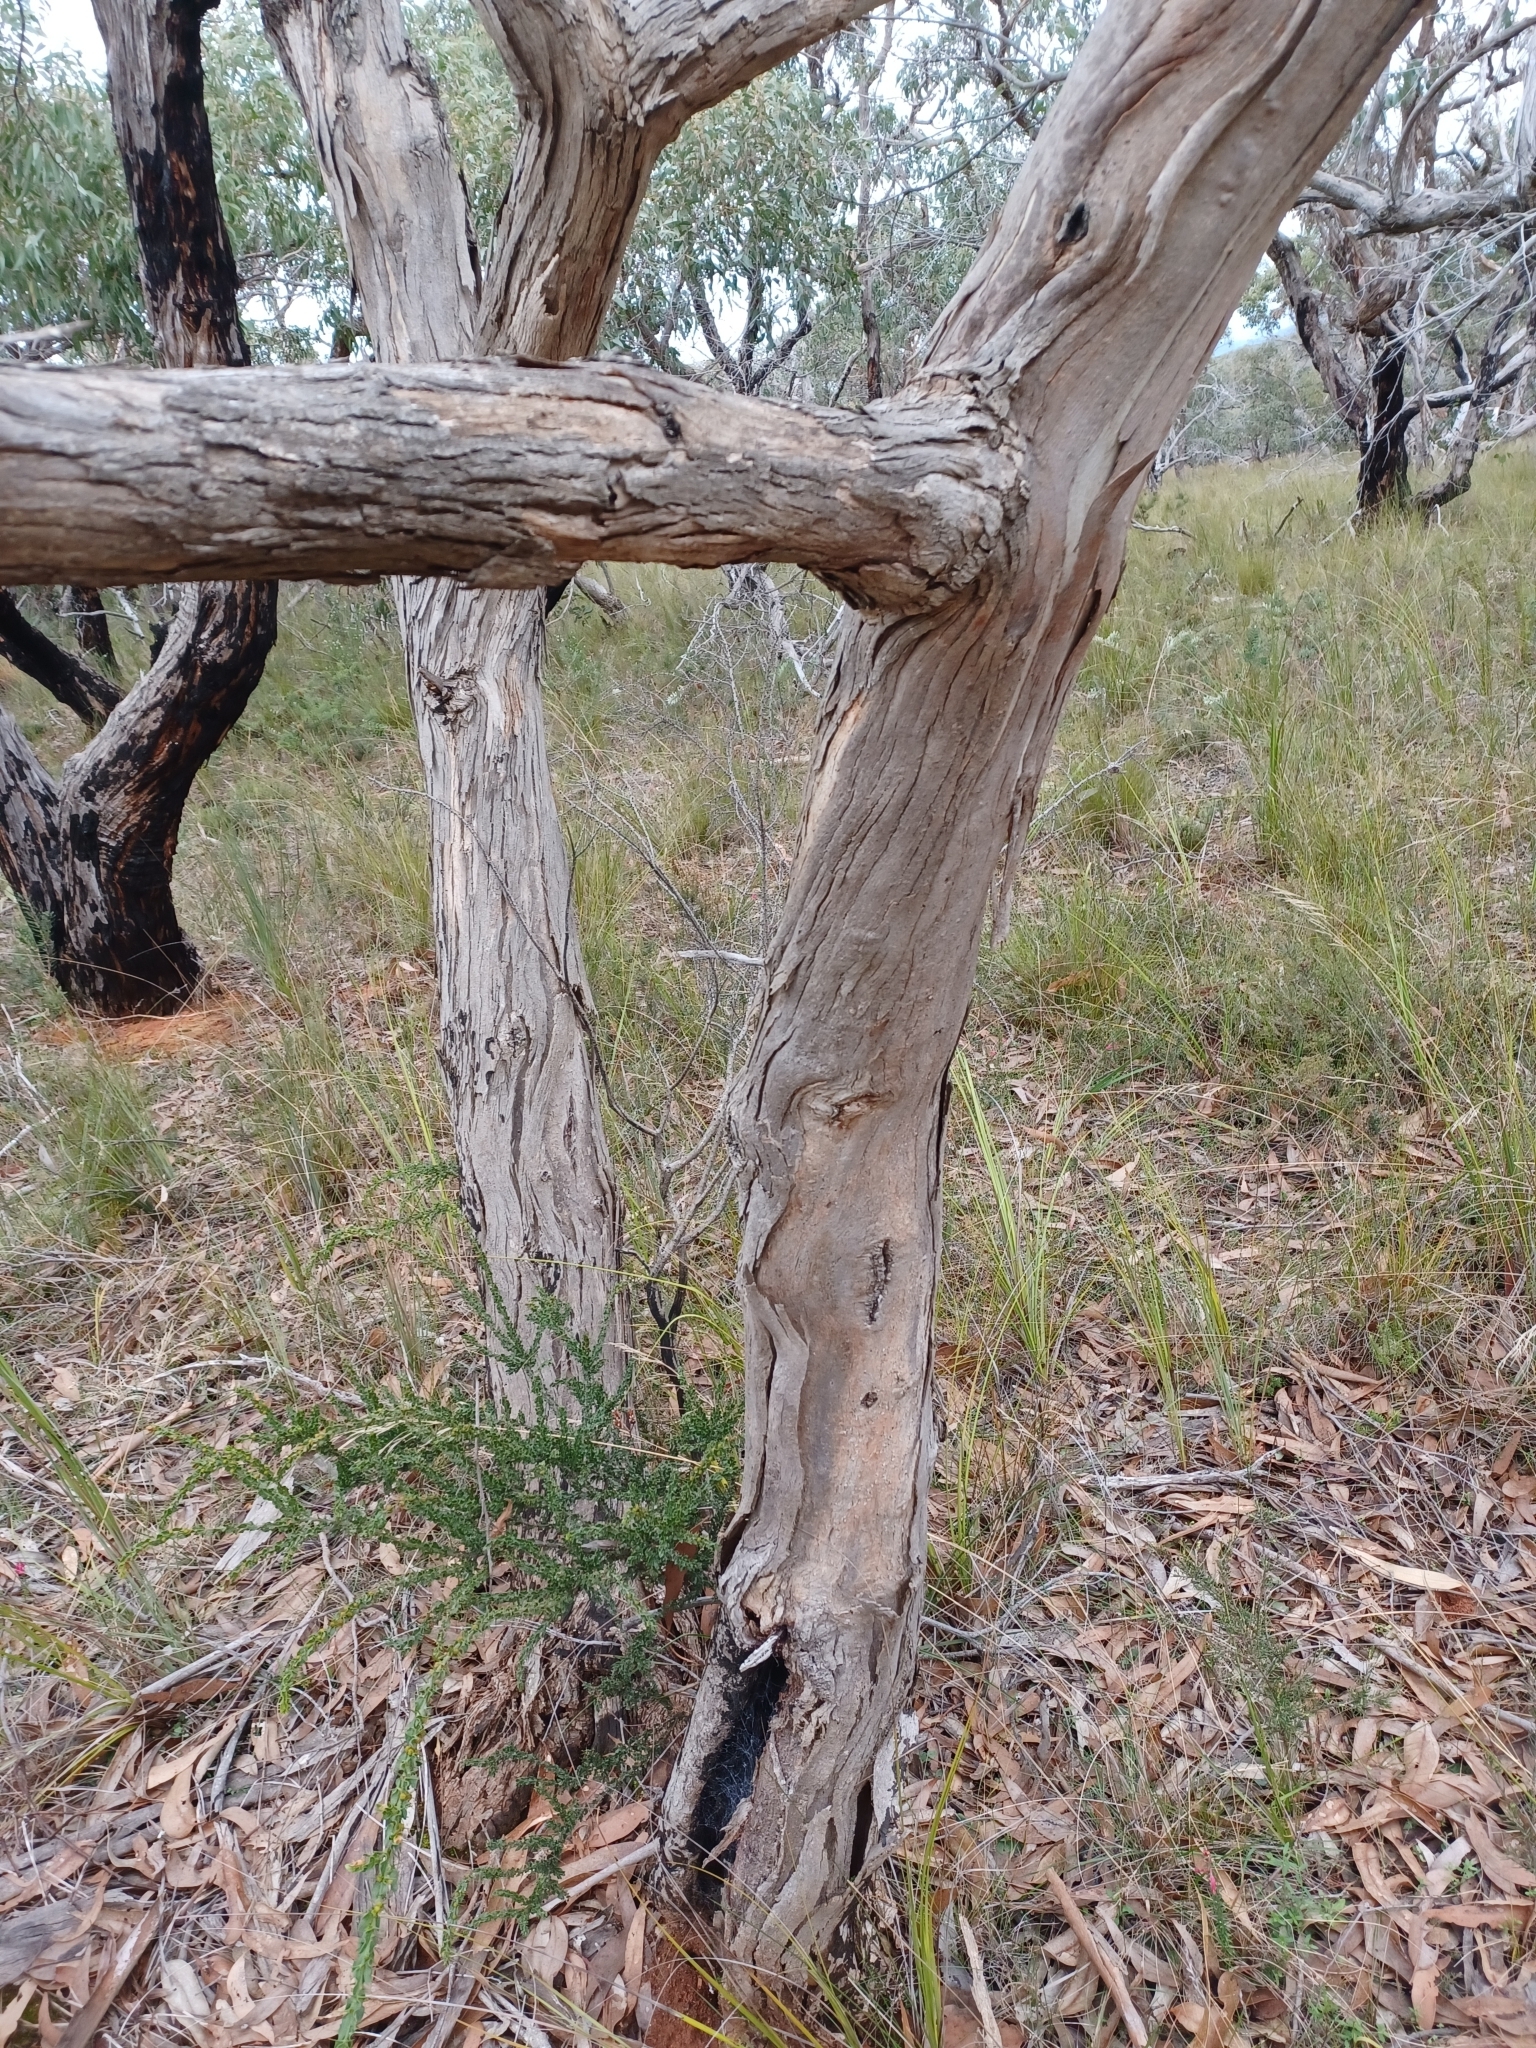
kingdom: Plantae
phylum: Tracheophyta
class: Magnoliopsida
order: Myrtales
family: Myrtaceae
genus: Eucalyptus
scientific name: Eucalyptus litoralis
